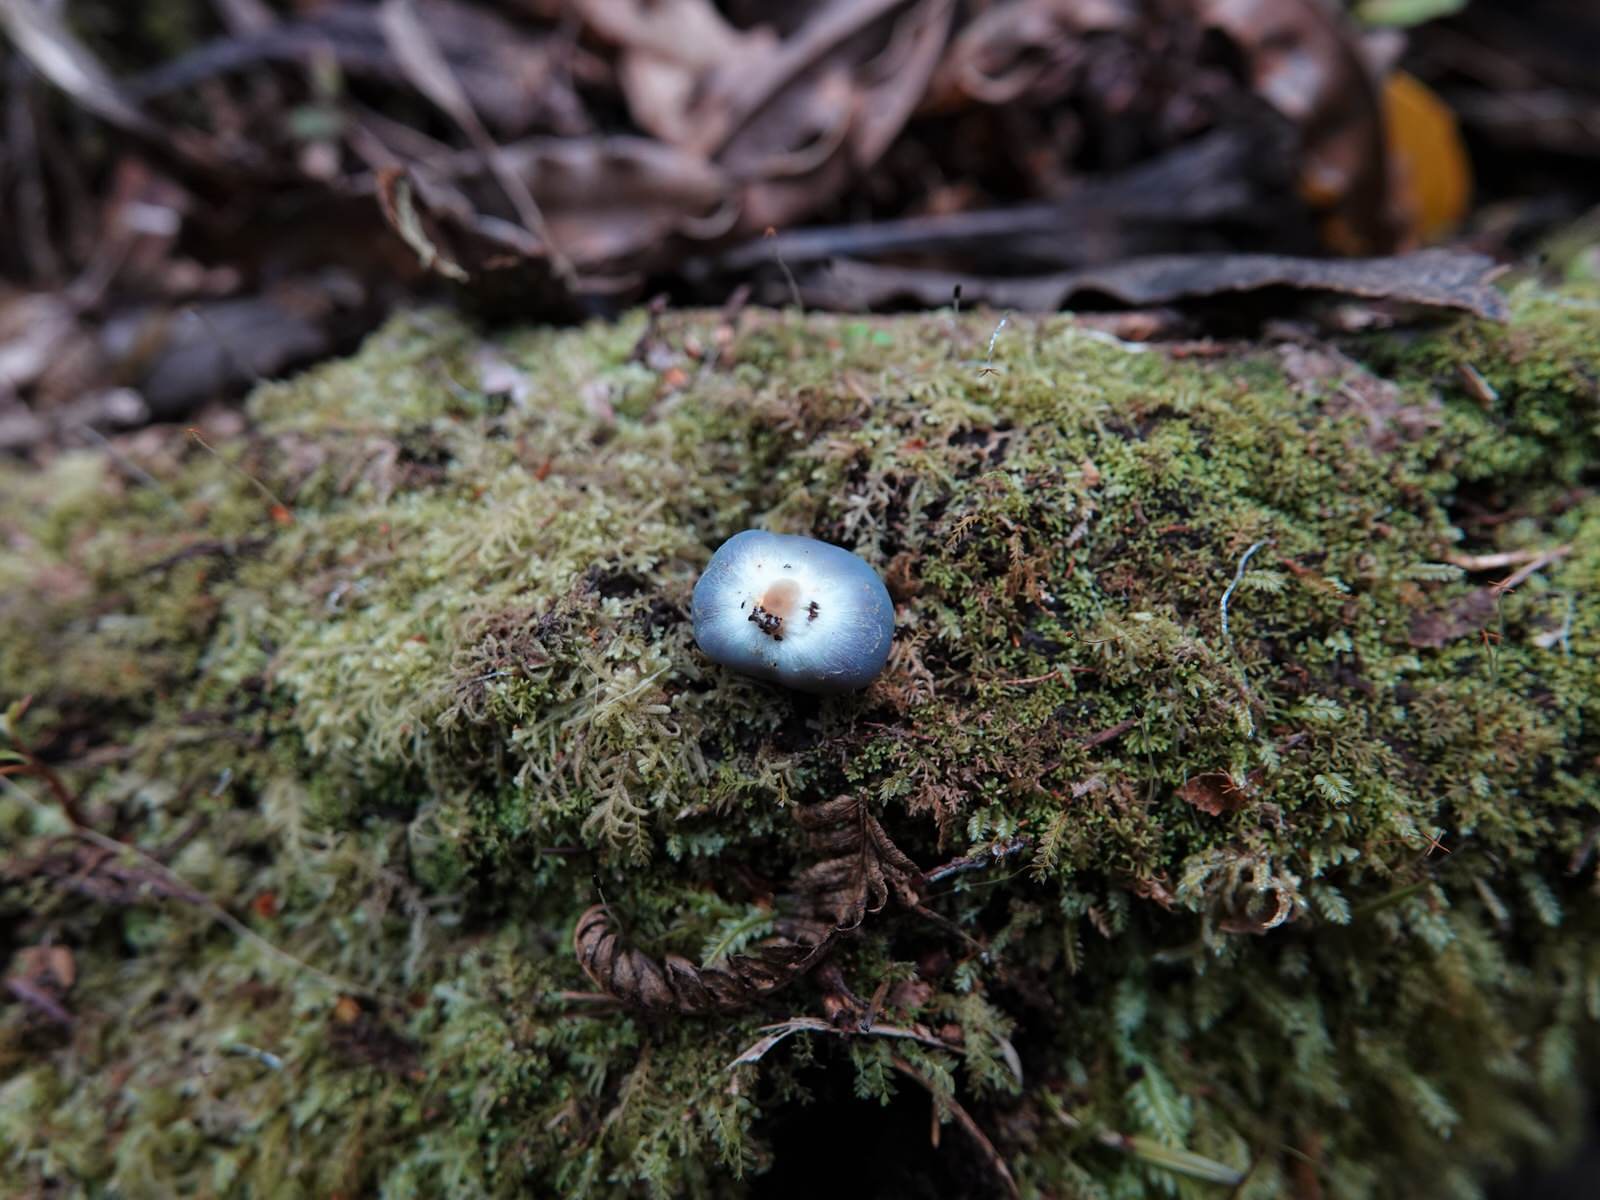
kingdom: Fungi
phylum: Basidiomycota
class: Agaricomycetes
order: Agaricales
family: Agaricaceae
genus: Clavogaster
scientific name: Clavogaster virescens
